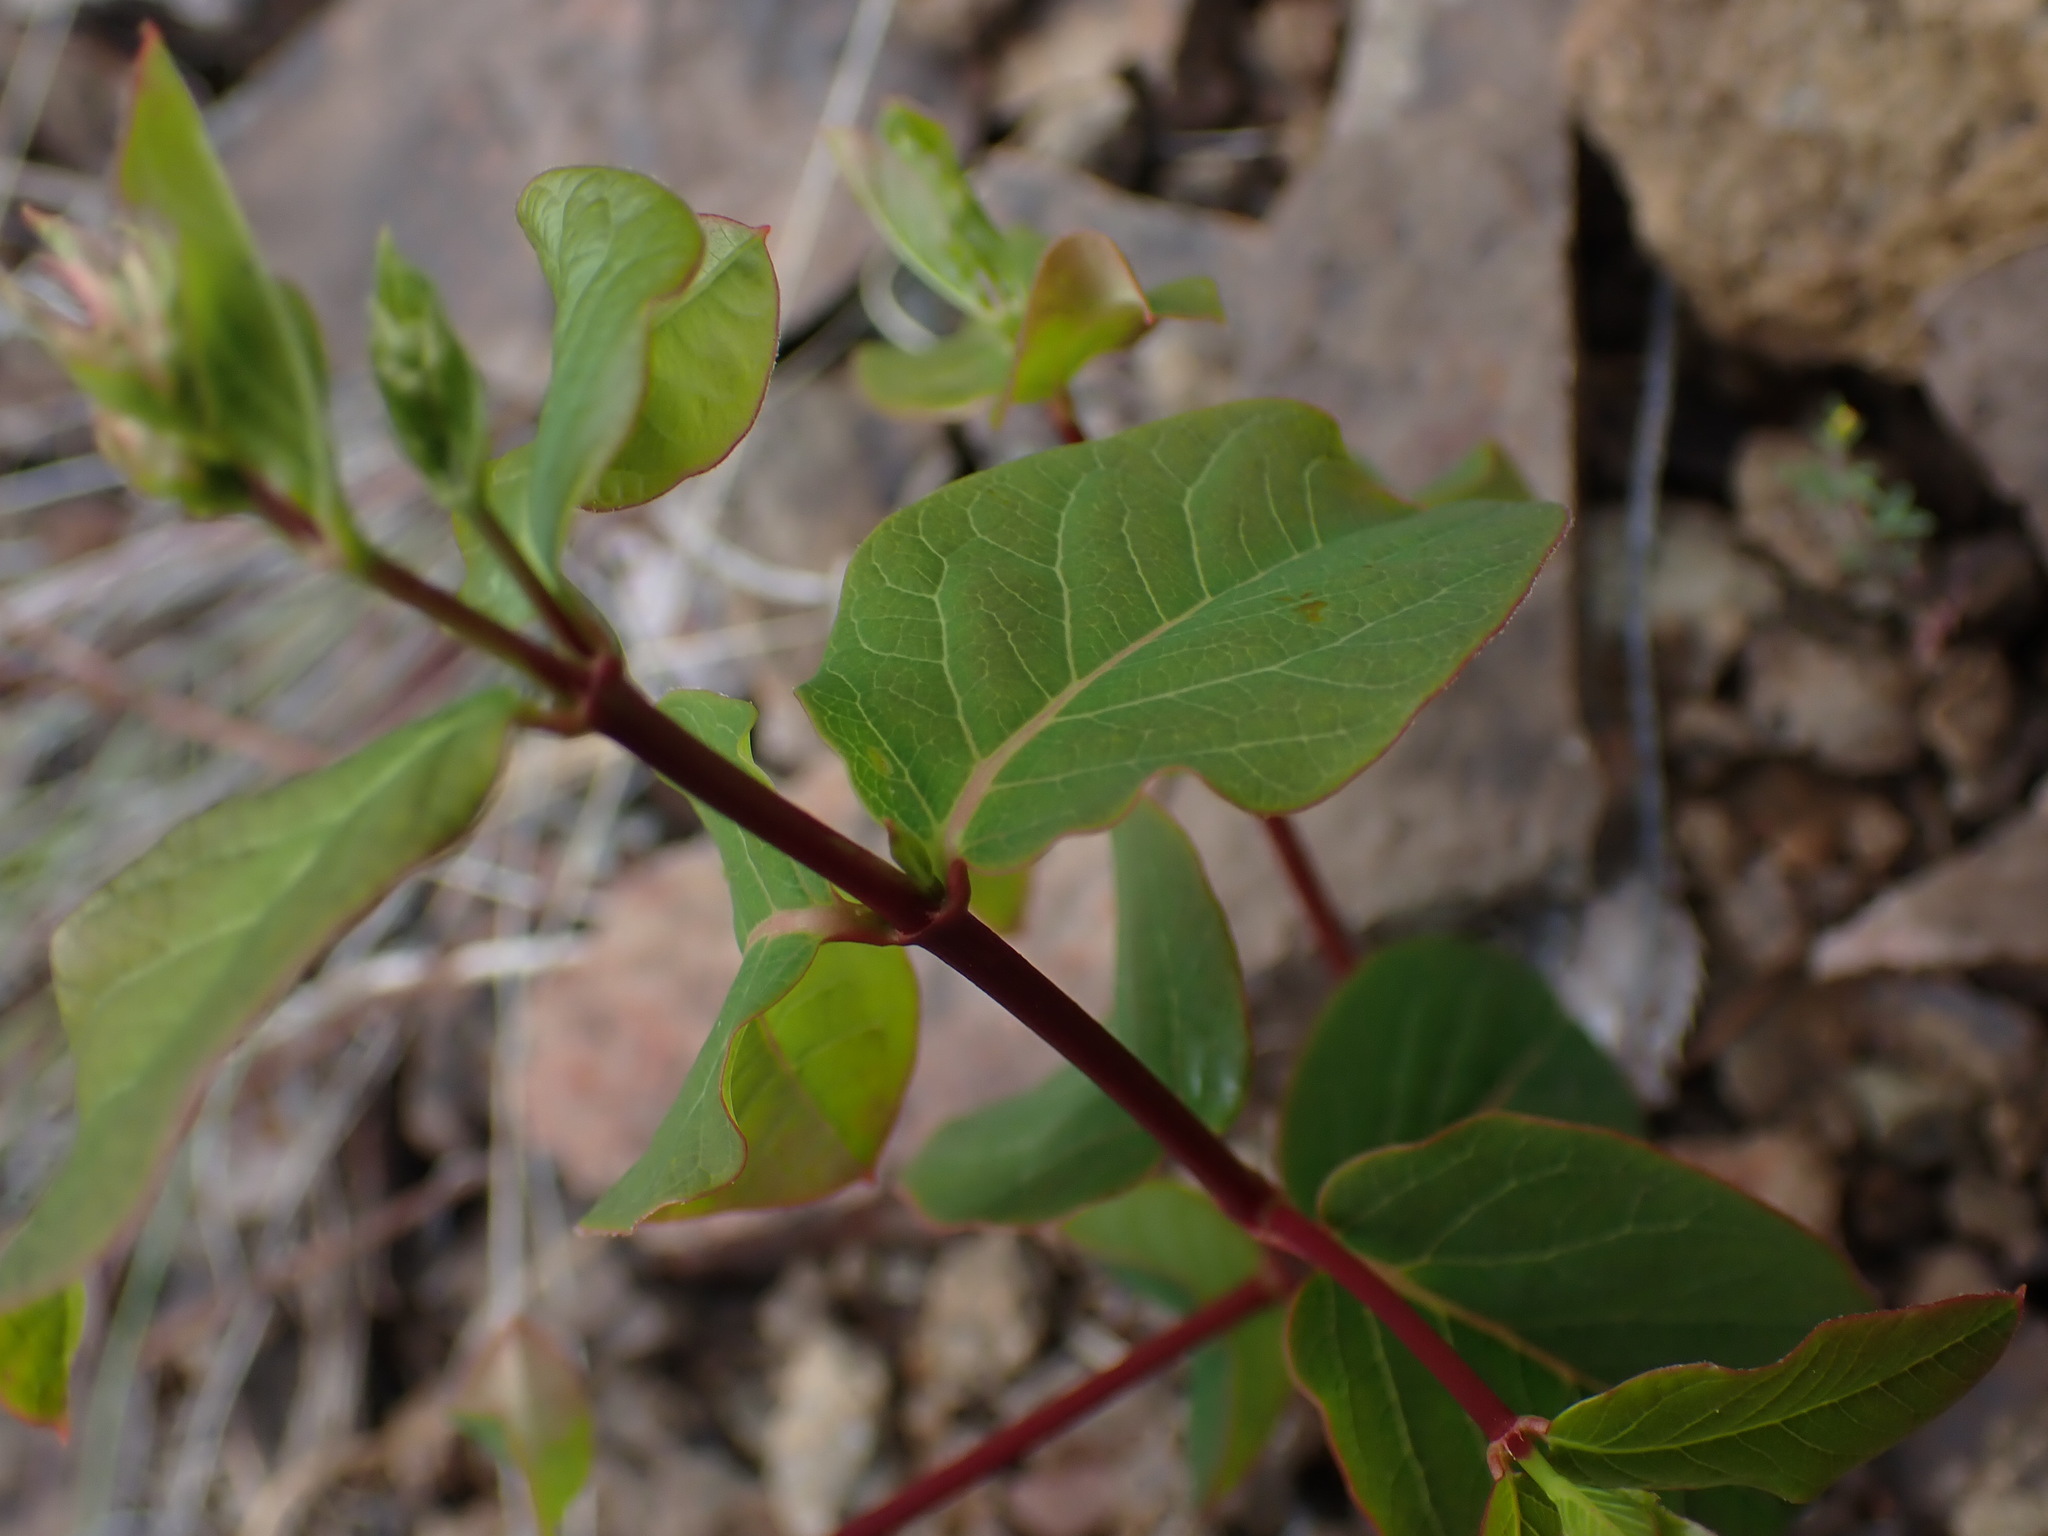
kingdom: Plantae
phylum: Tracheophyta
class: Magnoliopsida
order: Gentianales
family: Apocynaceae
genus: Apocynum
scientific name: Apocynum androsaemifolium
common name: Spreading dogbane
